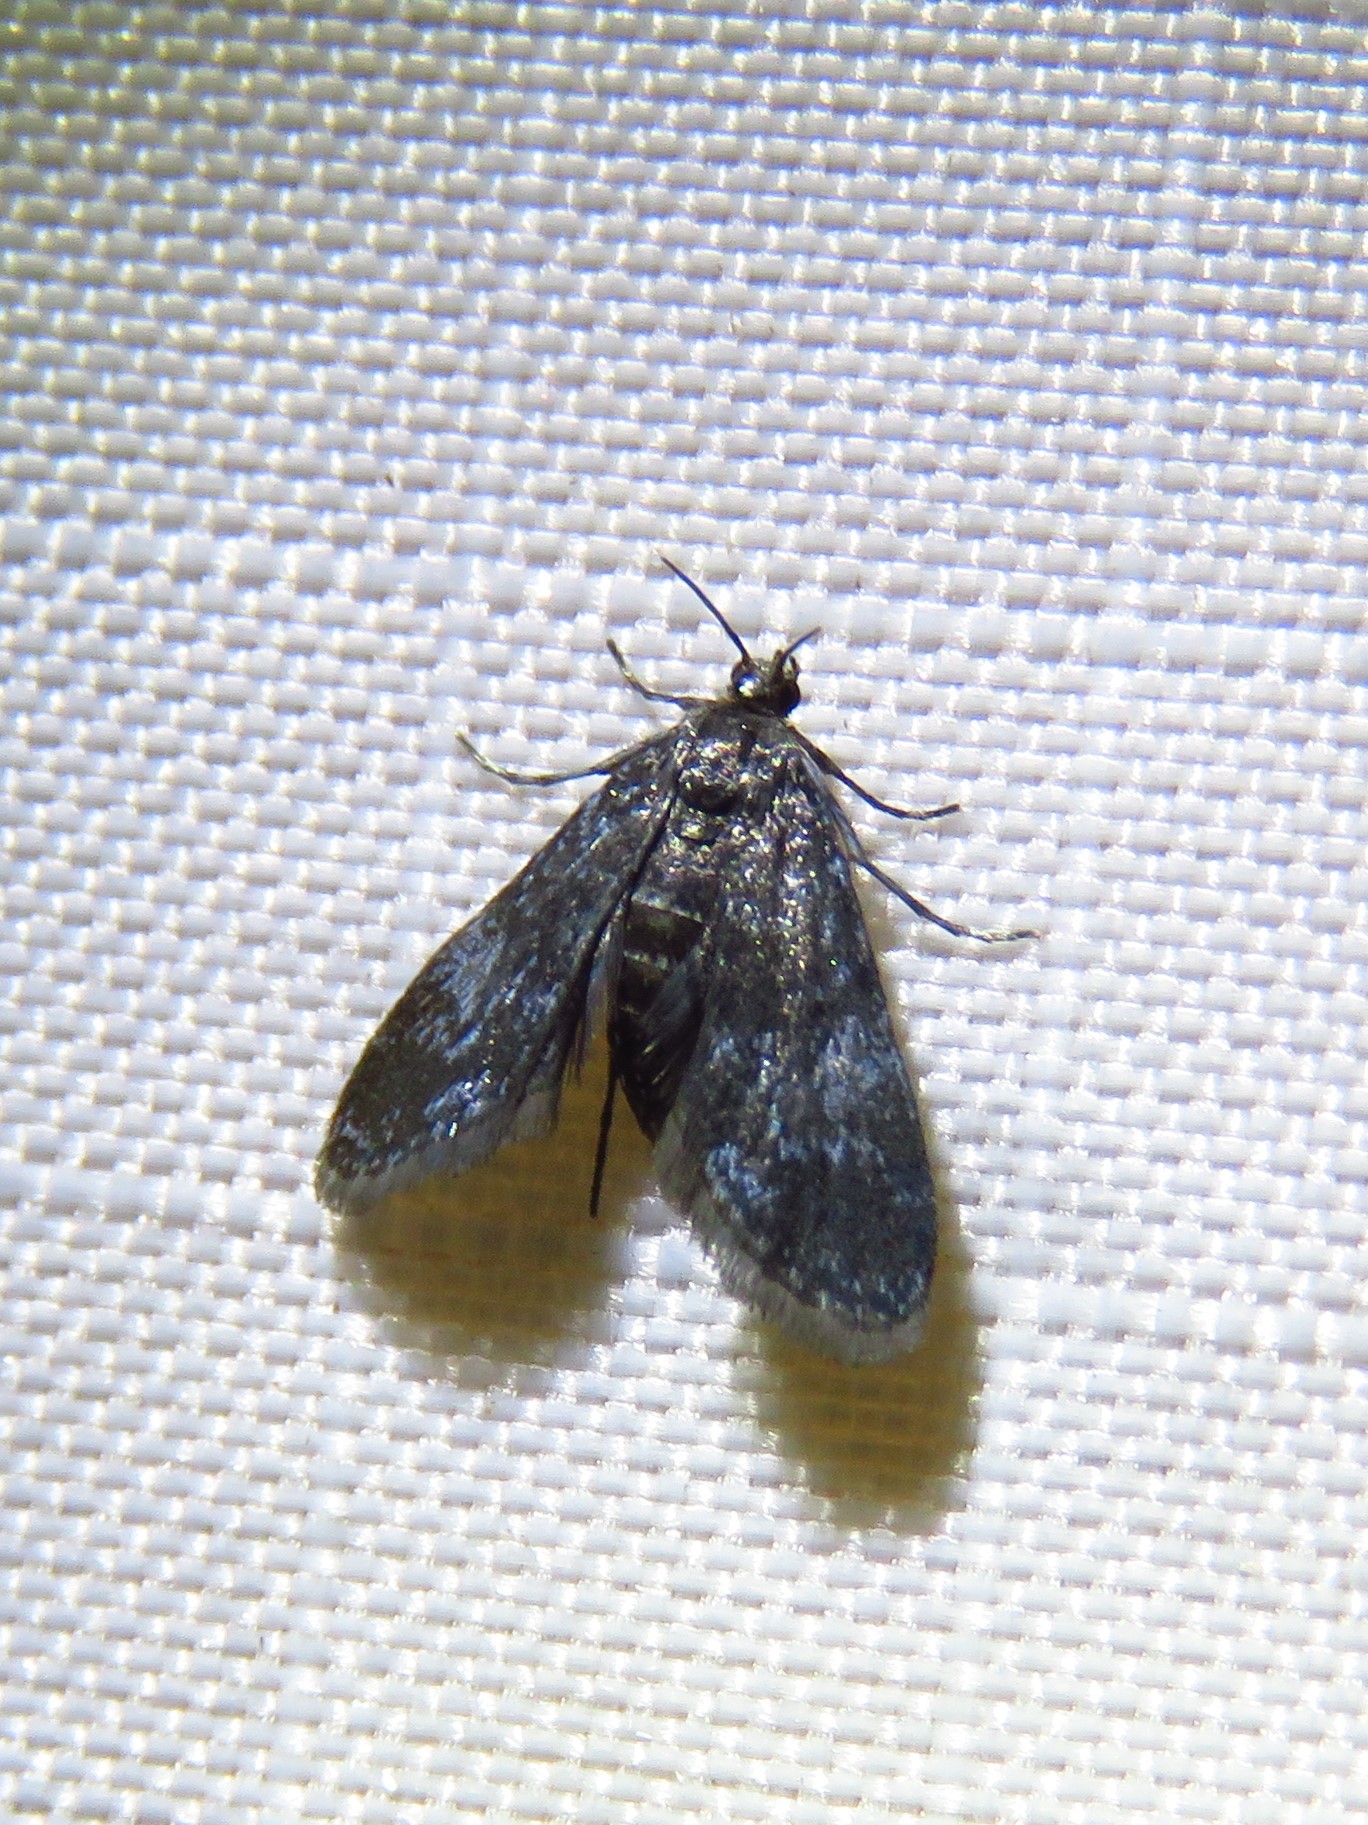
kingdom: Animalia
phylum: Arthropoda
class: Insecta
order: Lepidoptera
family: Crambidae
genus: Elophila
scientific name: Elophila tinealis
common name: Black duckweed moth
